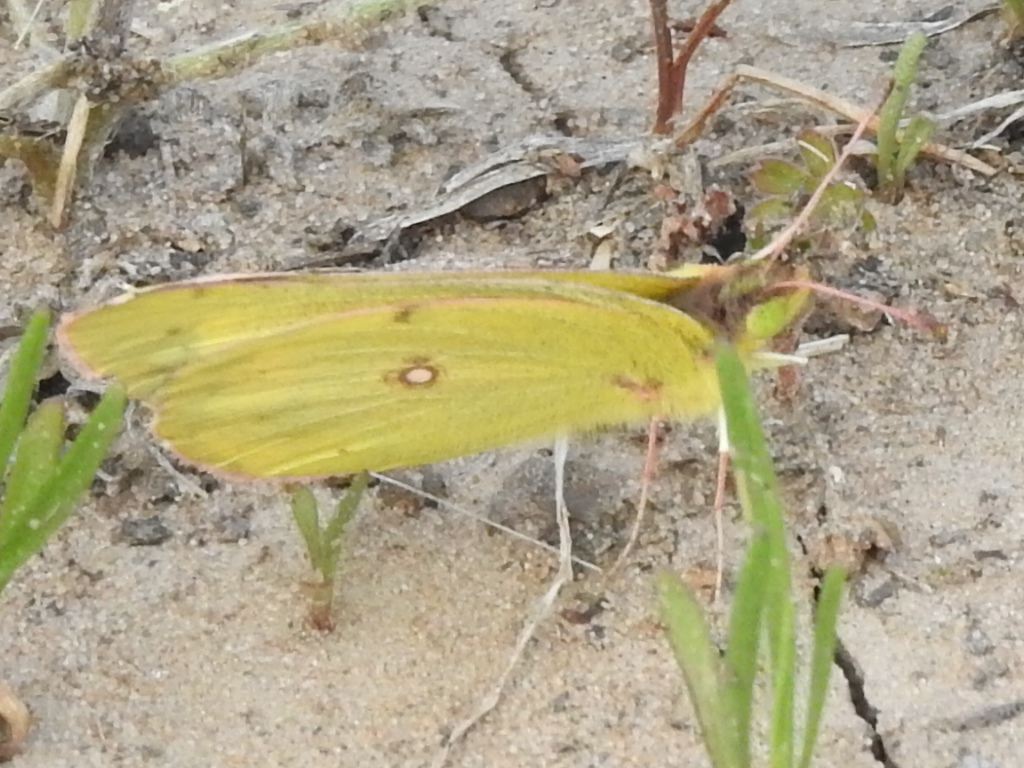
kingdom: Animalia
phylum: Arthropoda
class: Insecta
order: Lepidoptera
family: Pieridae
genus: Colias
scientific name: Colias eurytheme
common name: Alfalfa butterfly
